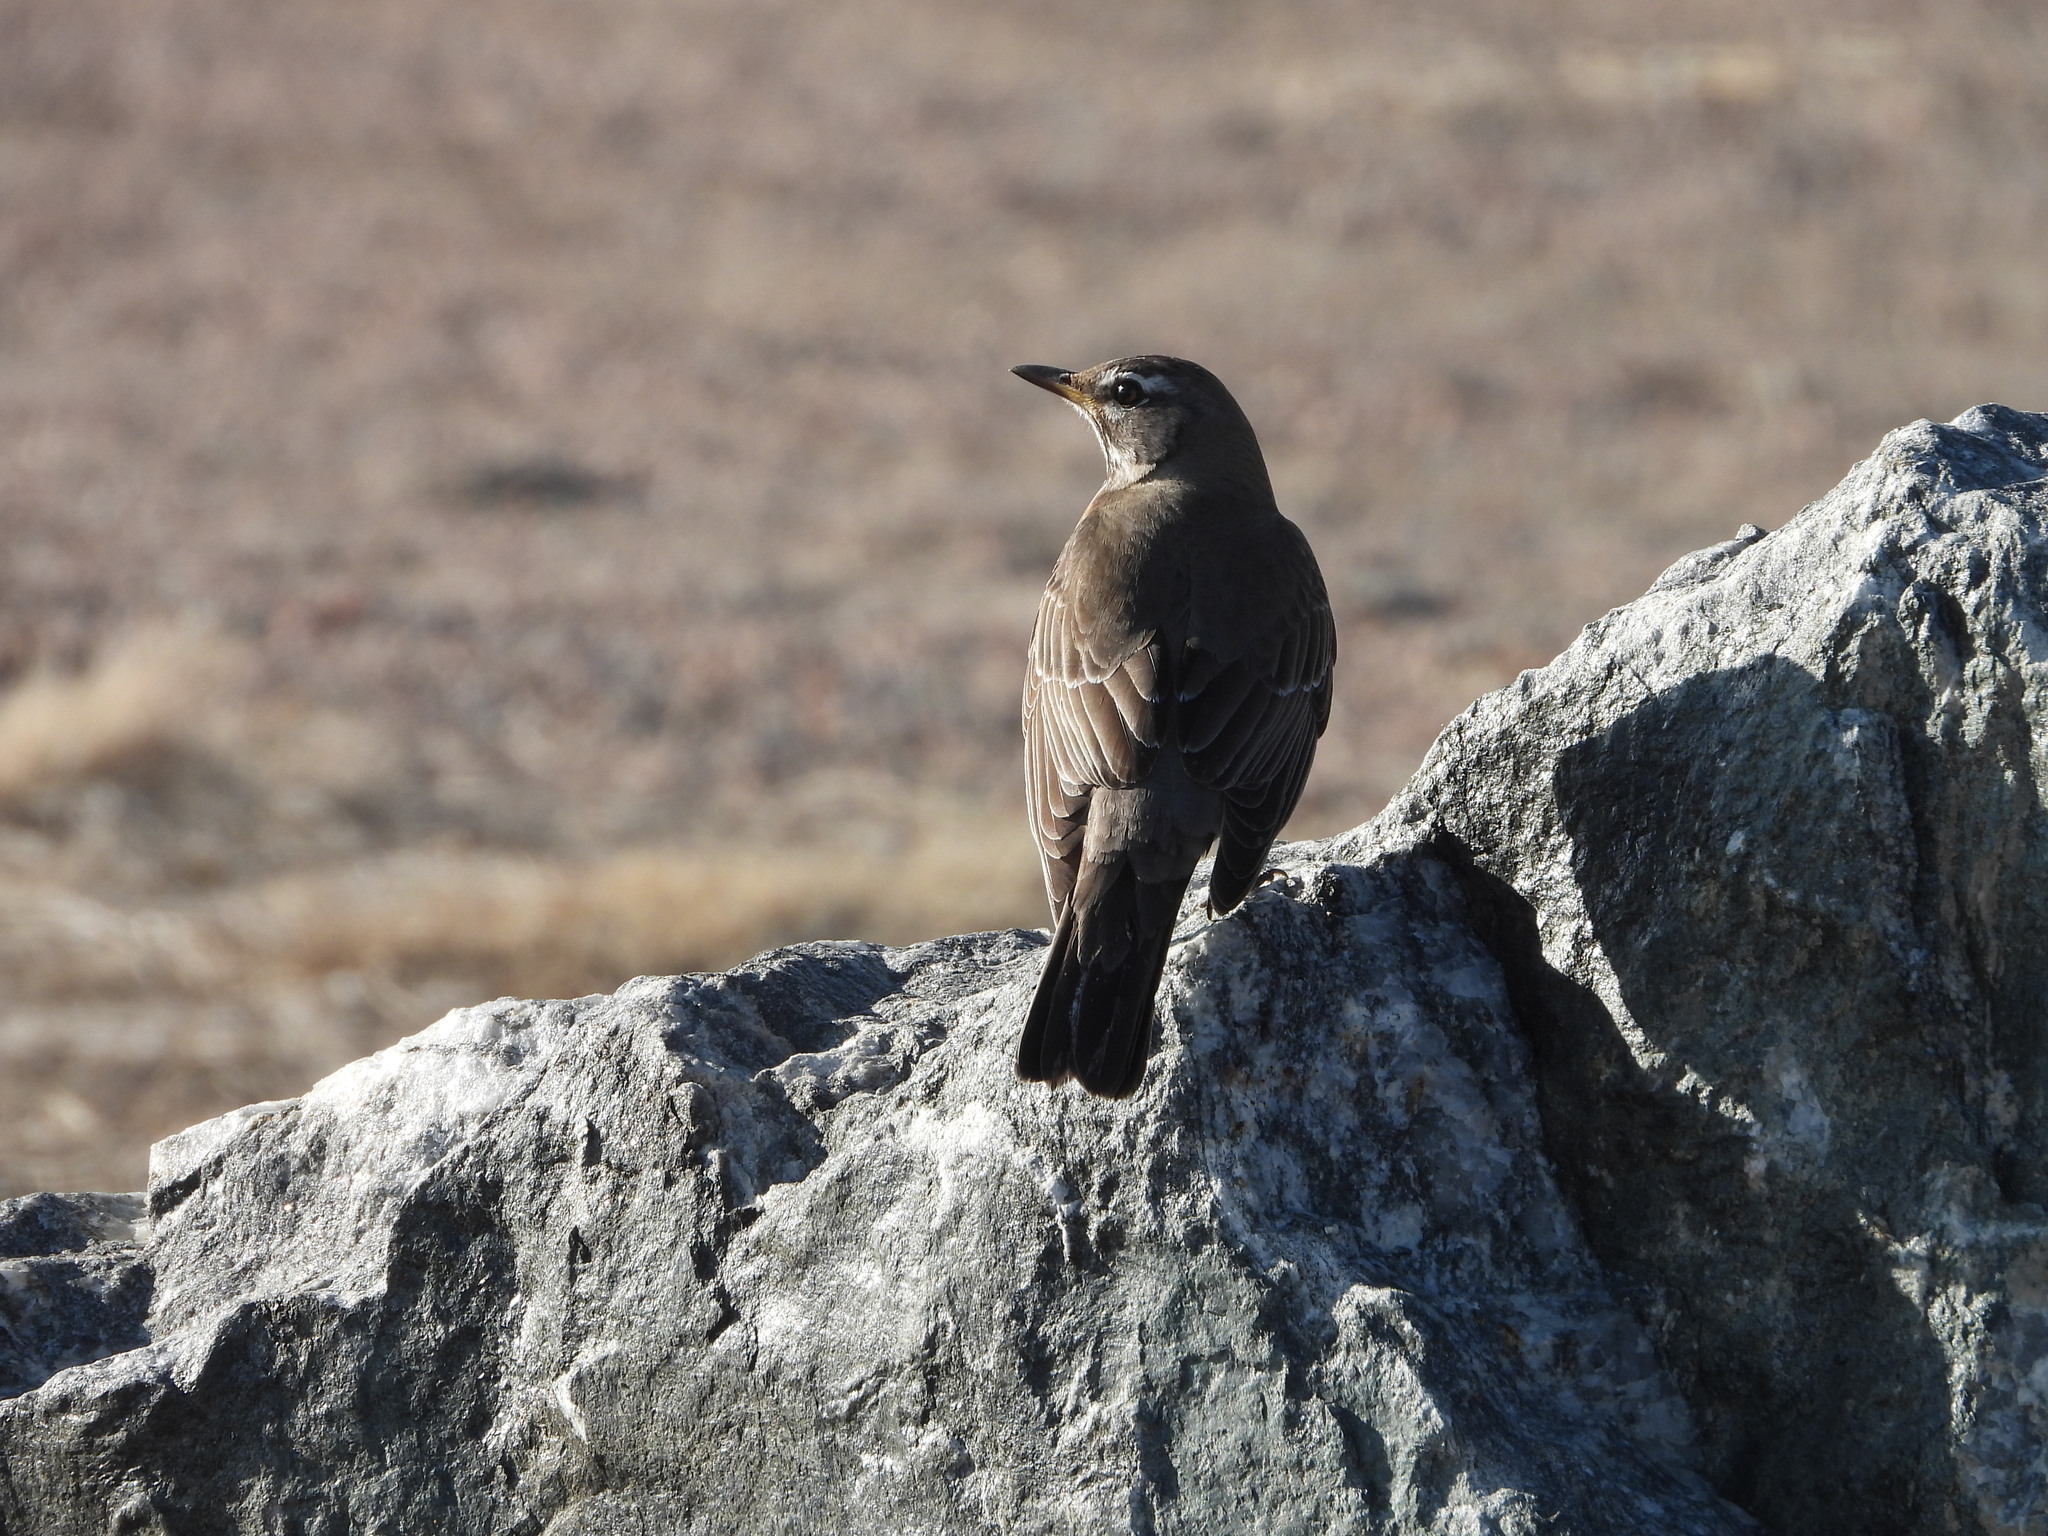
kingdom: Animalia
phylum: Chordata
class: Aves
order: Passeriformes
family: Turdidae
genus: Turdus
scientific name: Turdus migratorius
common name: American robin
